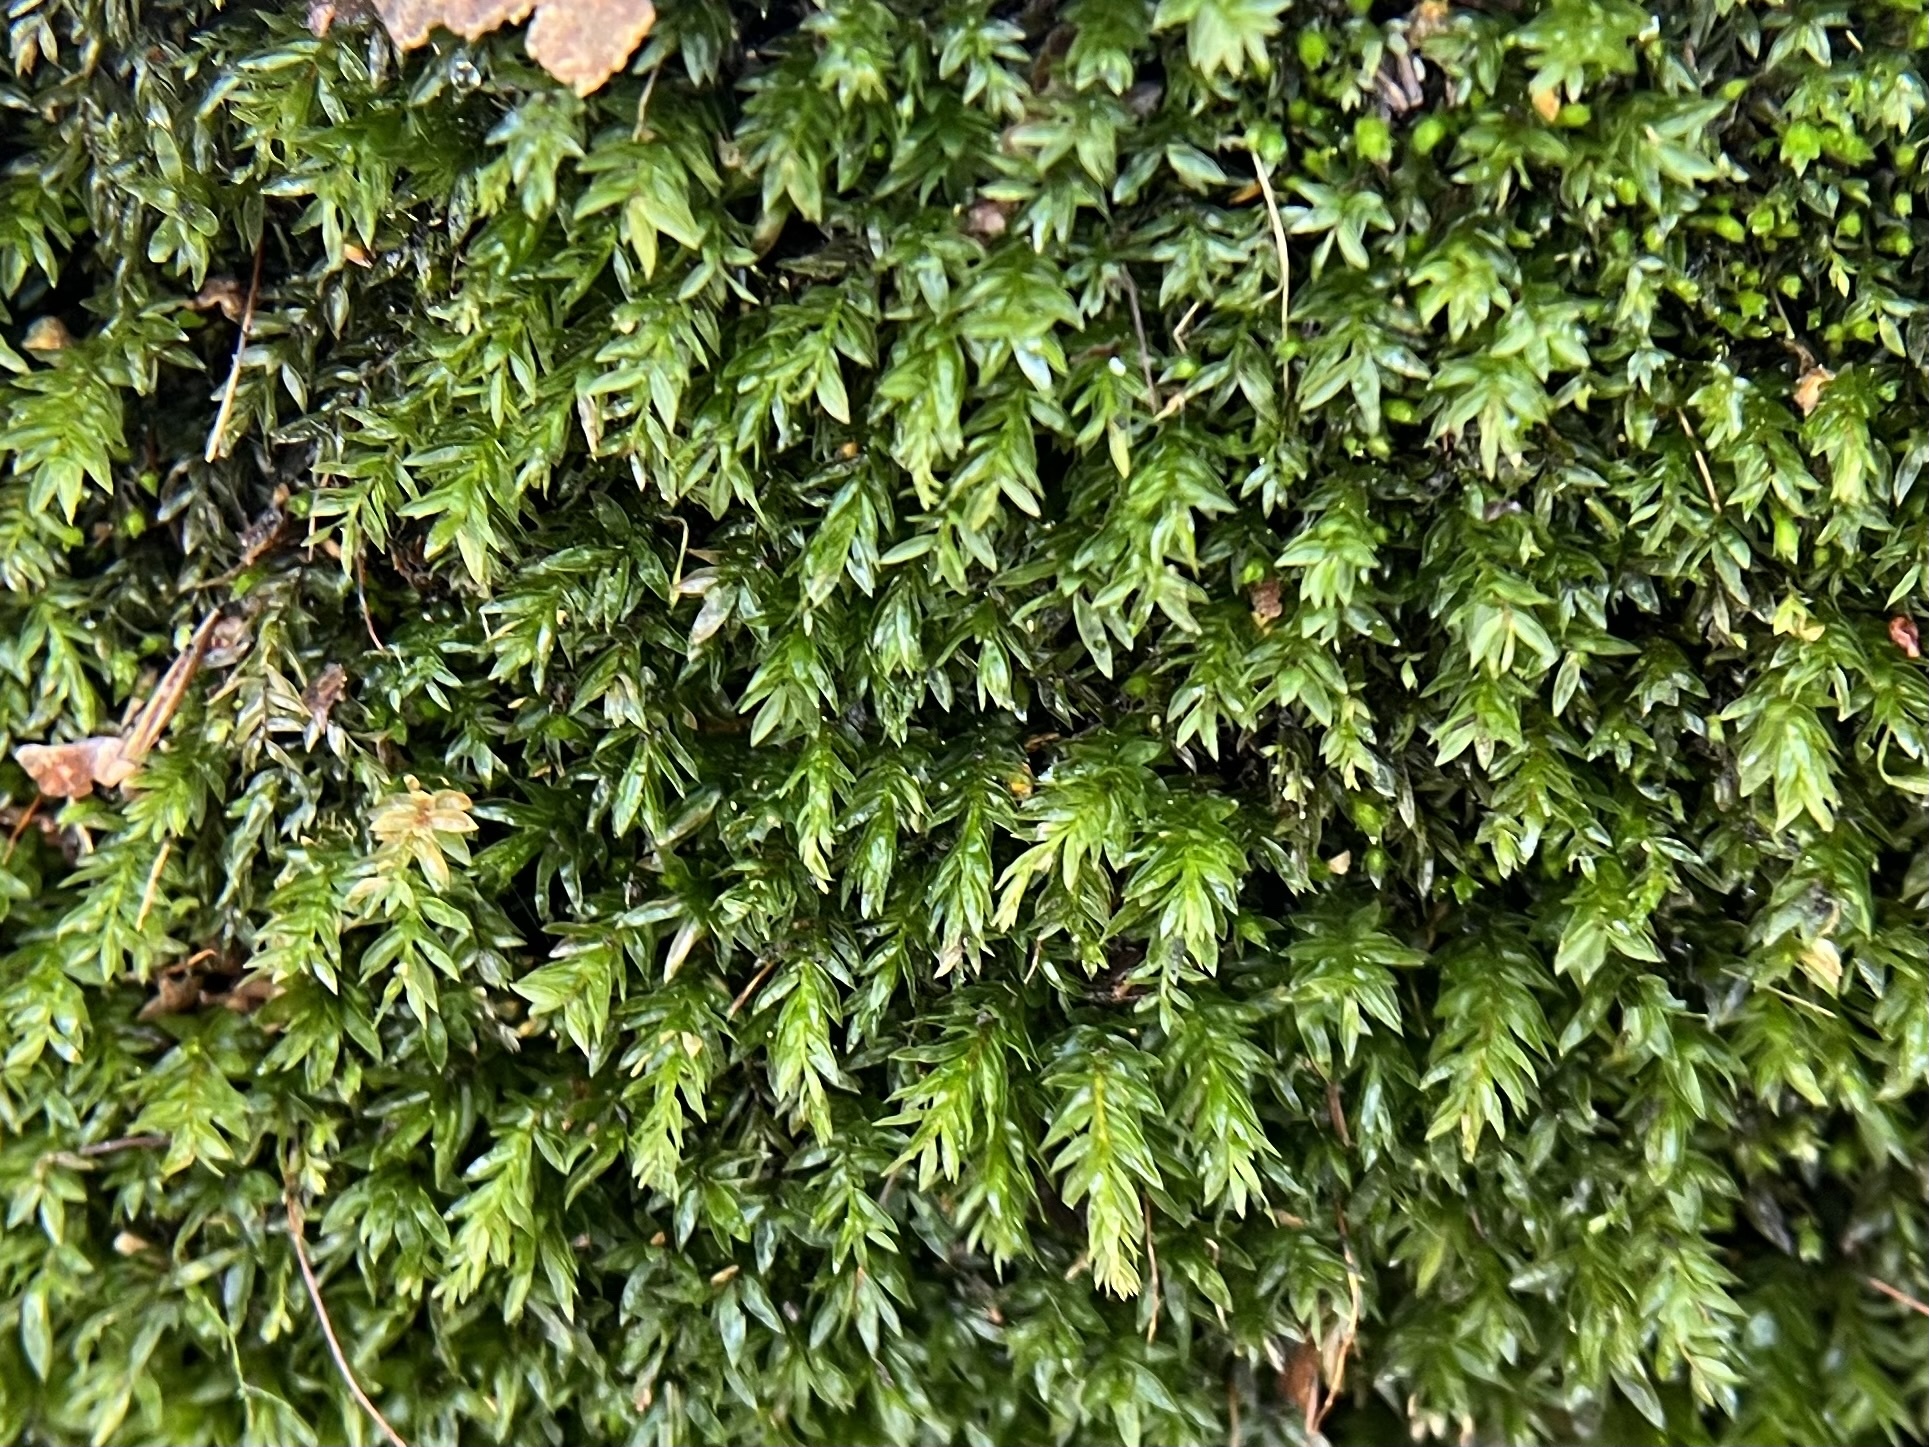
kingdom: Plantae
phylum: Bryophyta
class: Bryopsida
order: Bryales
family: Mniaceae
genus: Mnium
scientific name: Mnium hornum
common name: Swan's-neck leafy moss
